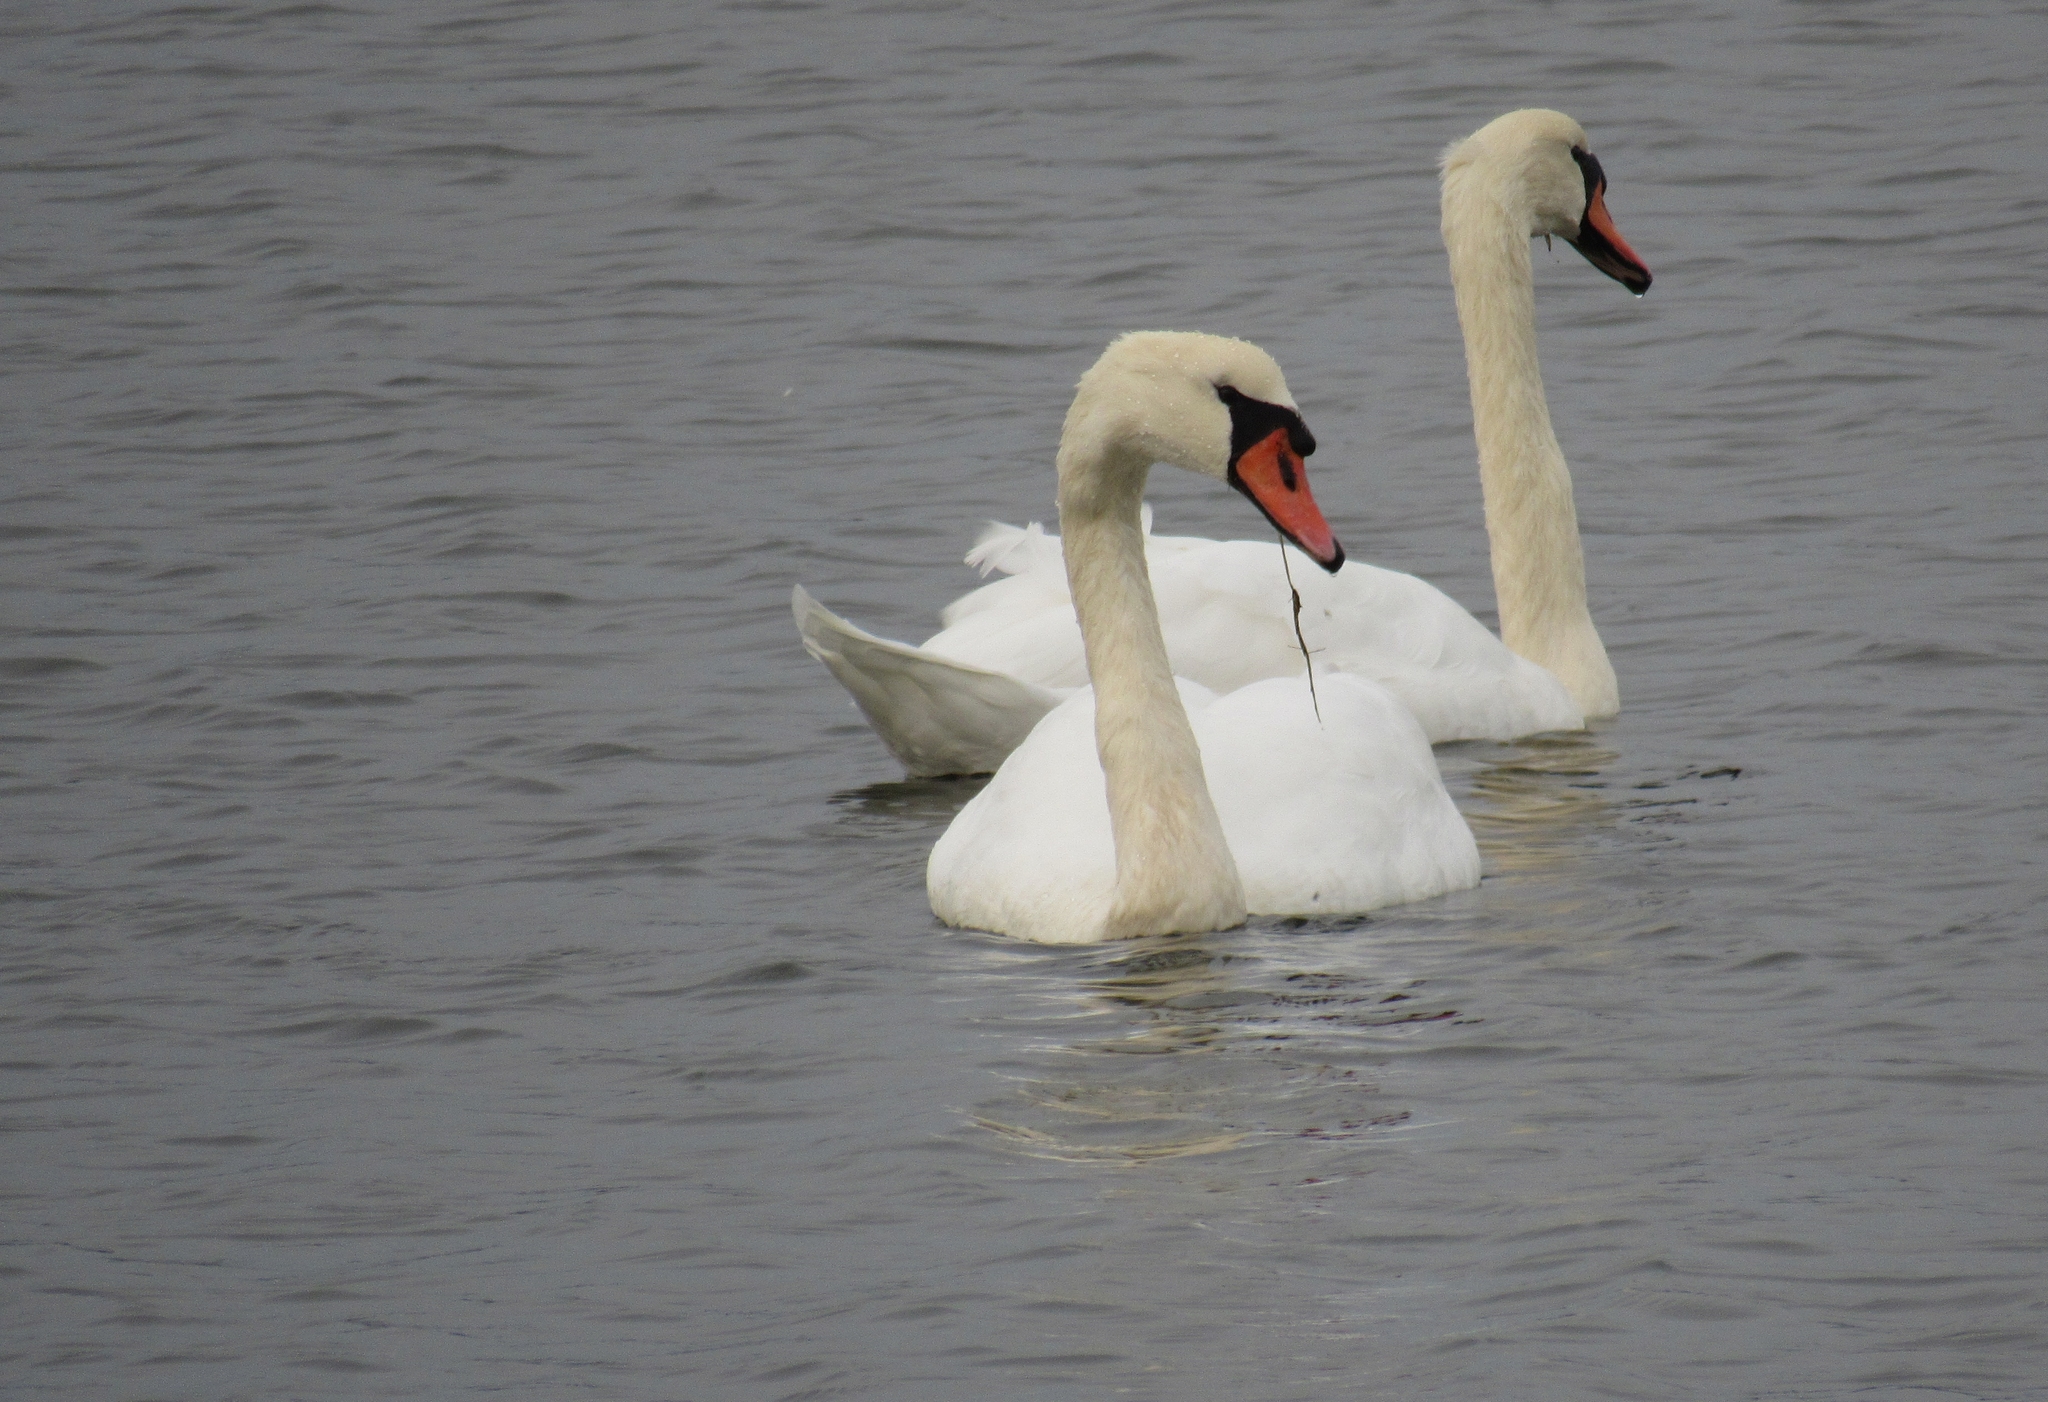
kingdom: Animalia
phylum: Chordata
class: Aves
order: Anseriformes
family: Anatidae
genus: Cygnus
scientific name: Cygnus olor
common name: Mute swan
